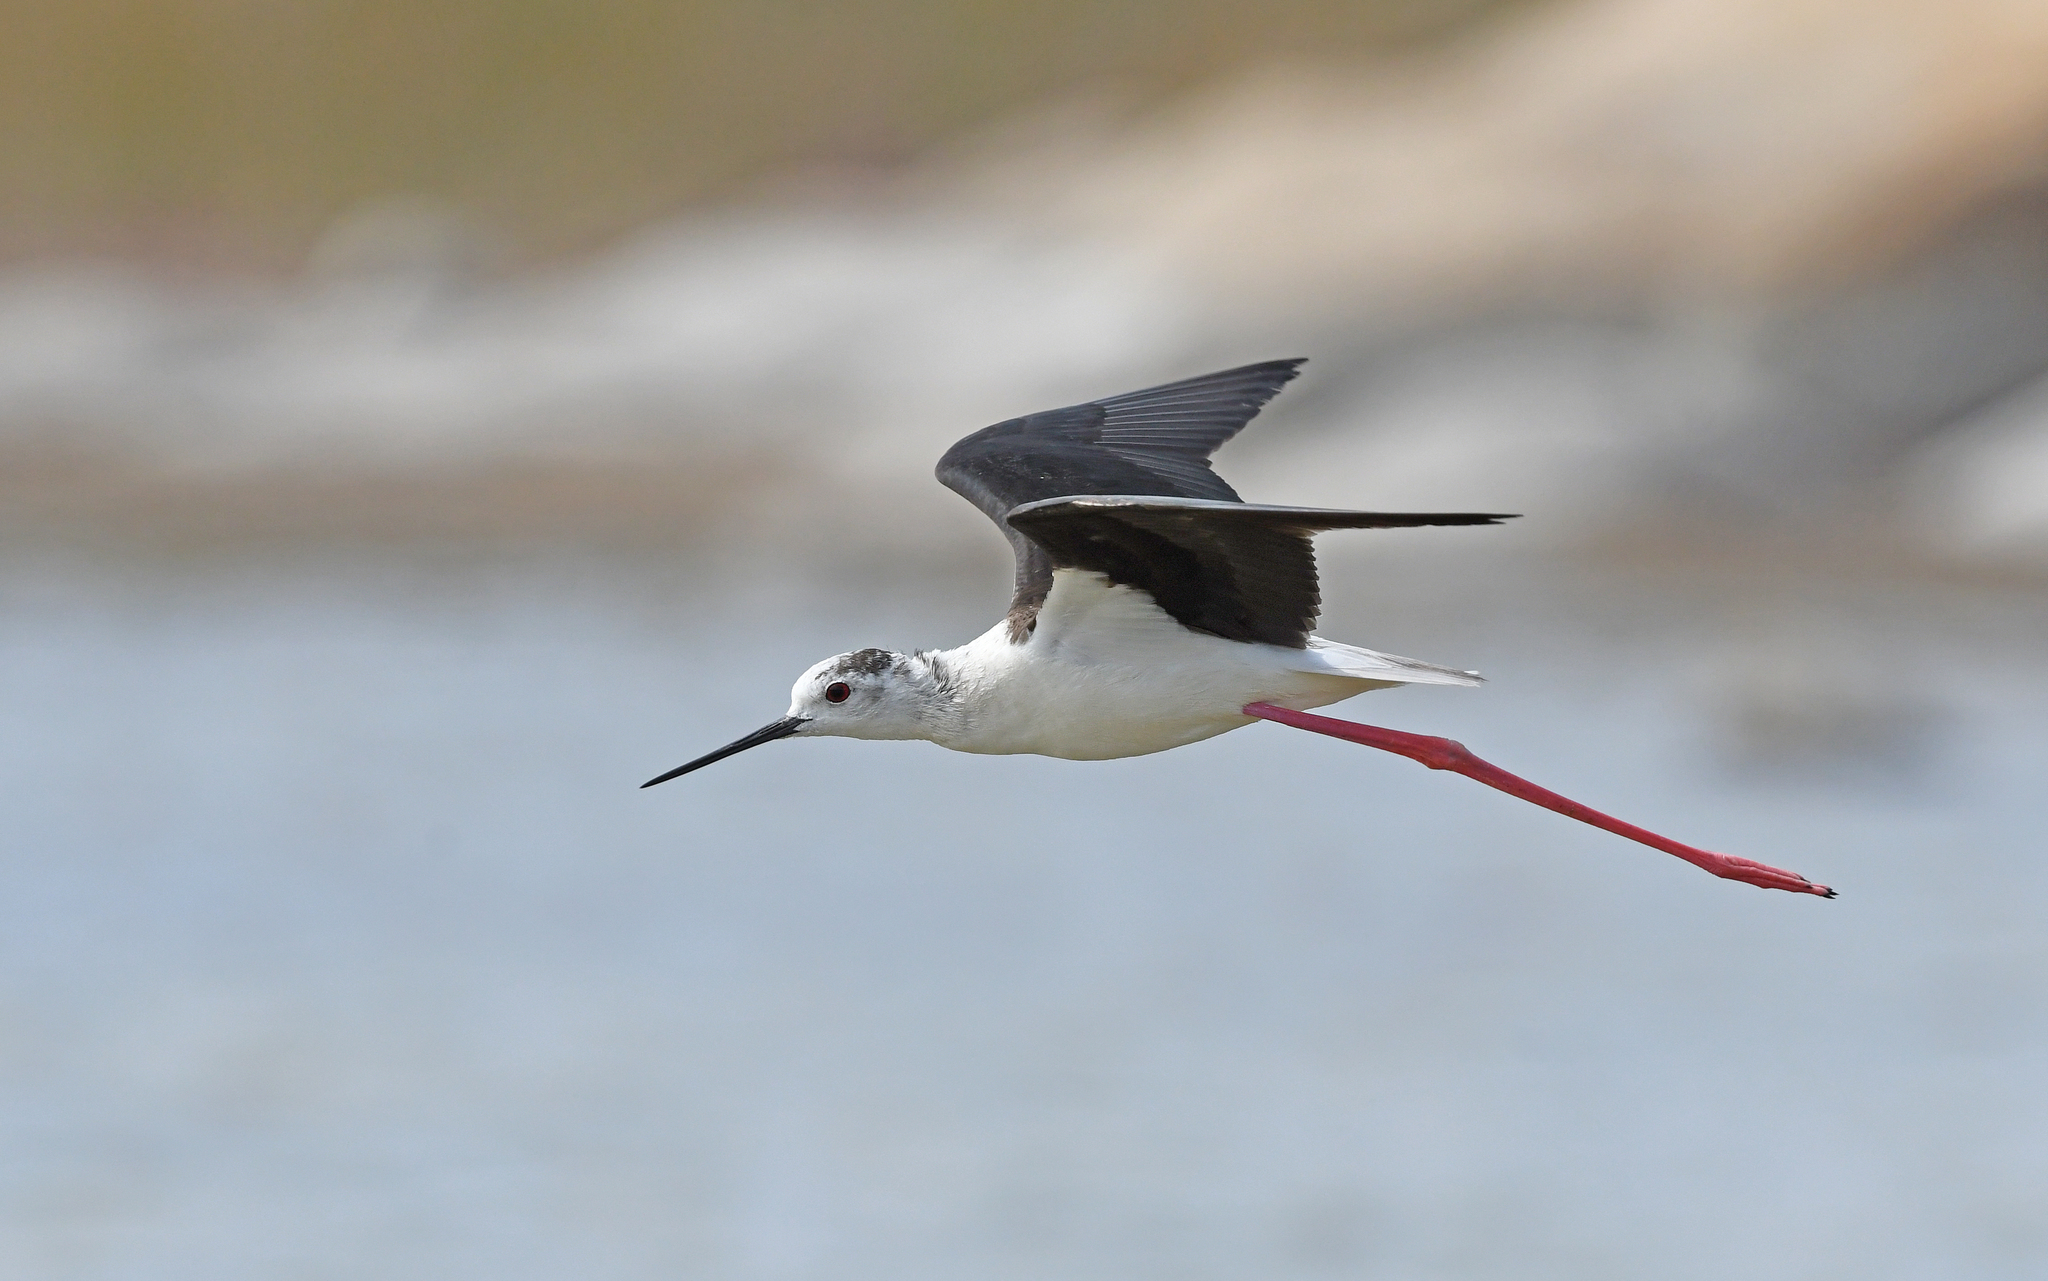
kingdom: Animalia
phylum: Chordata
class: Aves
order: Charadriiformes
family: Recurvirostridae
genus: Himantopus
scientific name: Himantopus himantopus
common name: Black-winged stilt
